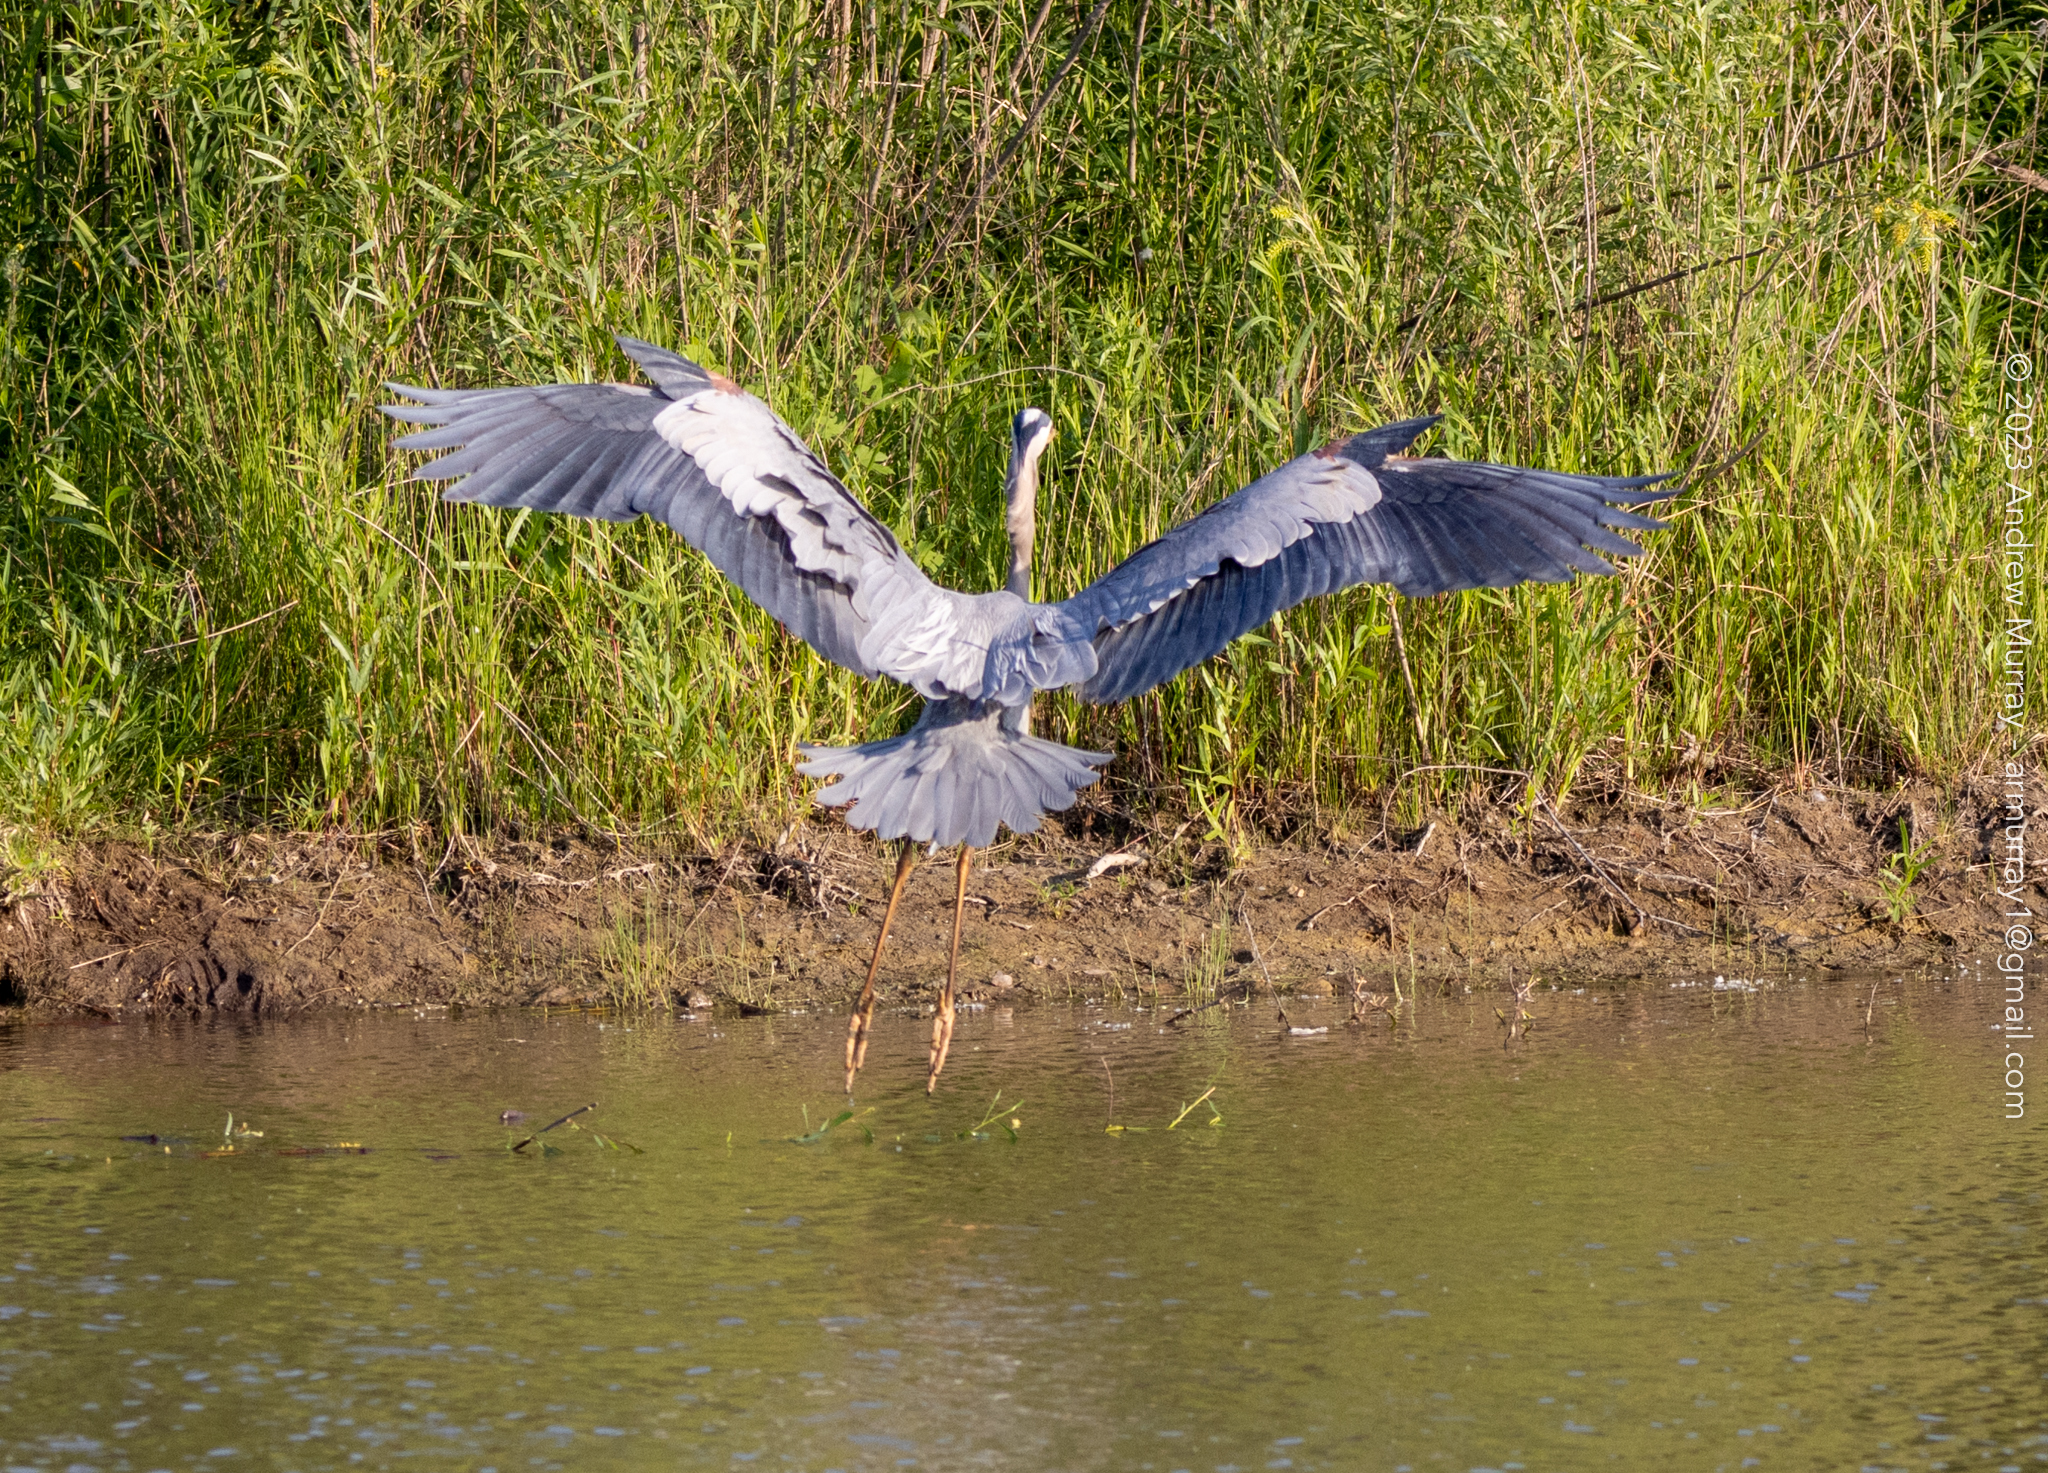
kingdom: Animalia
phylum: Chordata
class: Aves
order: Pelecaniformes
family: Ardeidae
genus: Ardea
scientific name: Ardea herodias
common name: Great blue heron
